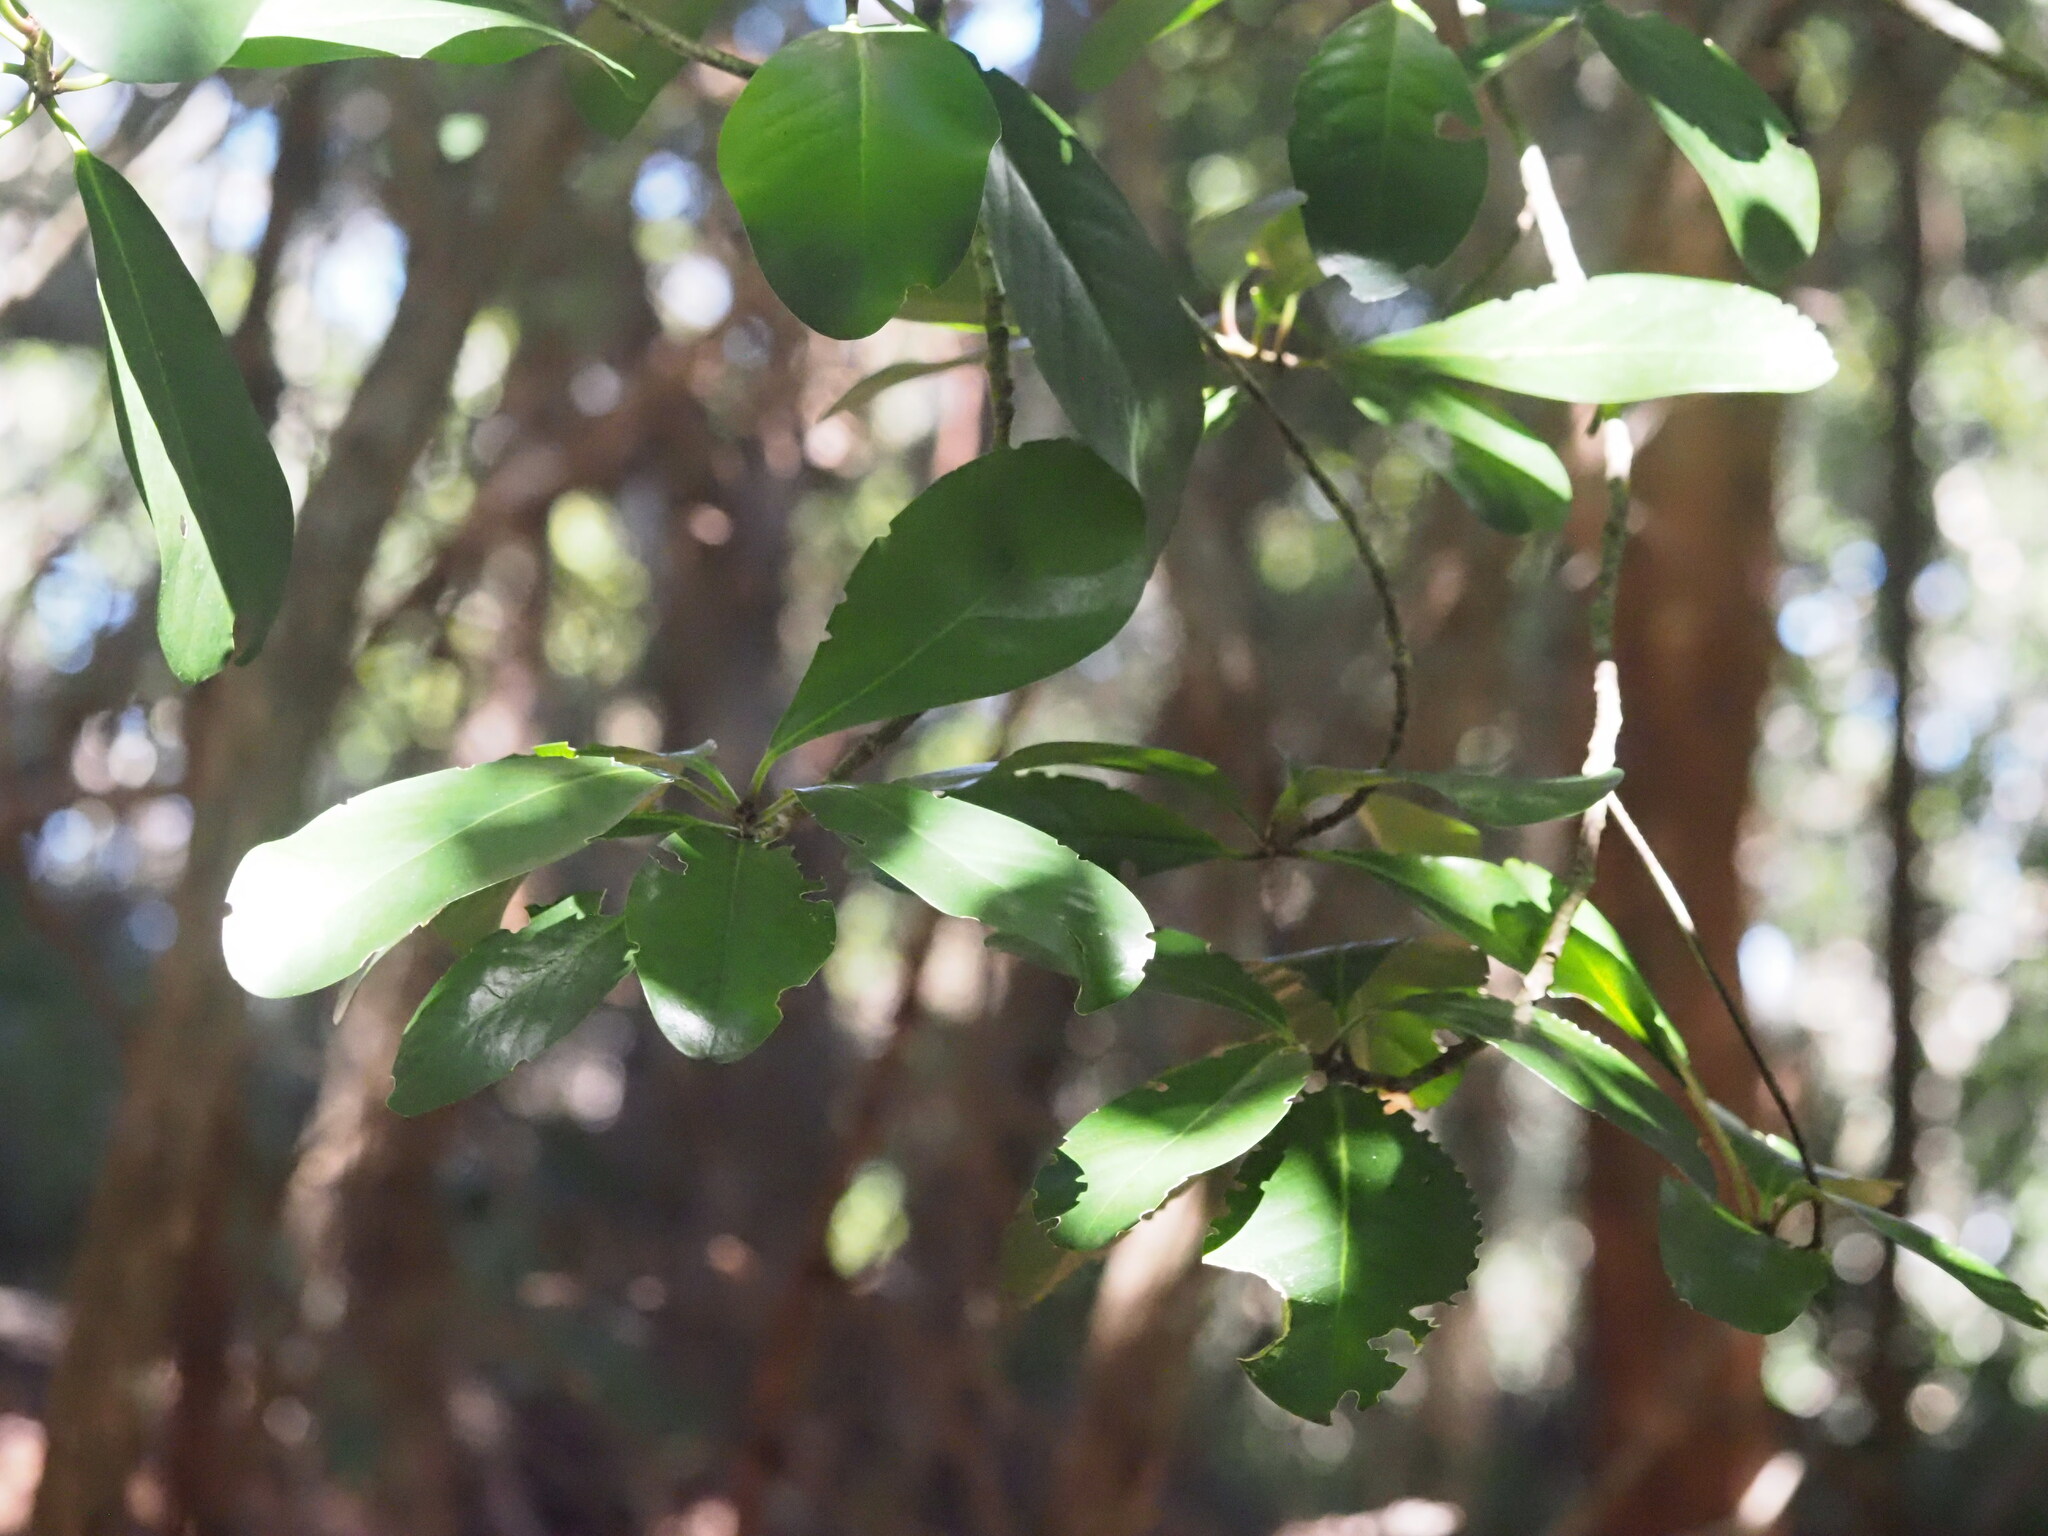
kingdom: Plantae
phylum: Tracheophyta
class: Magnoliopsida
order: Cucurbitales
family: Corynocarpaceae
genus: Corynocarpus
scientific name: Corynocarpus laevigatus
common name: New zealand laurel
